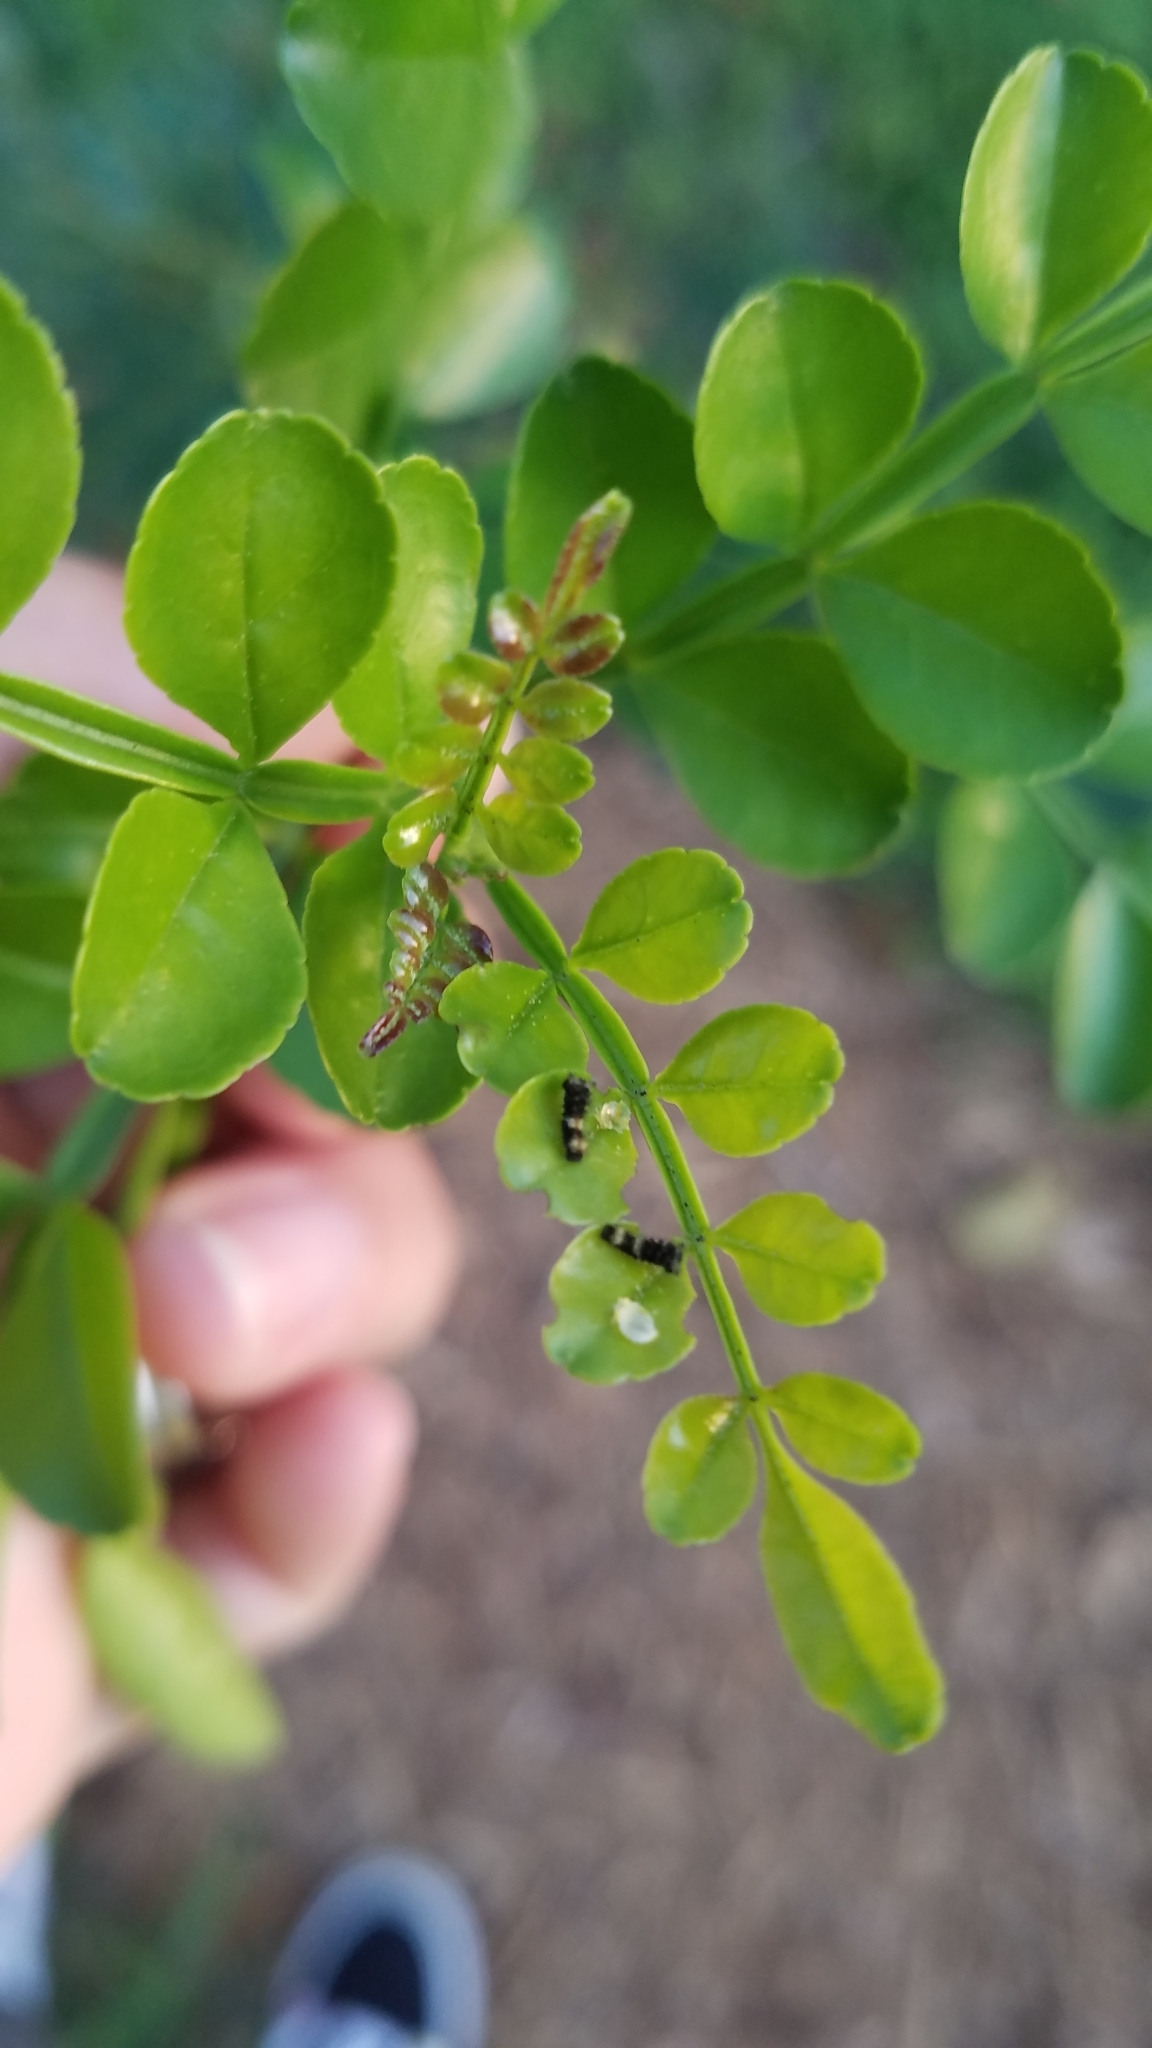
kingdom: Animalia
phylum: Arthropoda
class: Insecta
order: Lepidoptera
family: Papilionidae
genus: Papilio
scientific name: Papilio cresphontes
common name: Giant swallowtail
